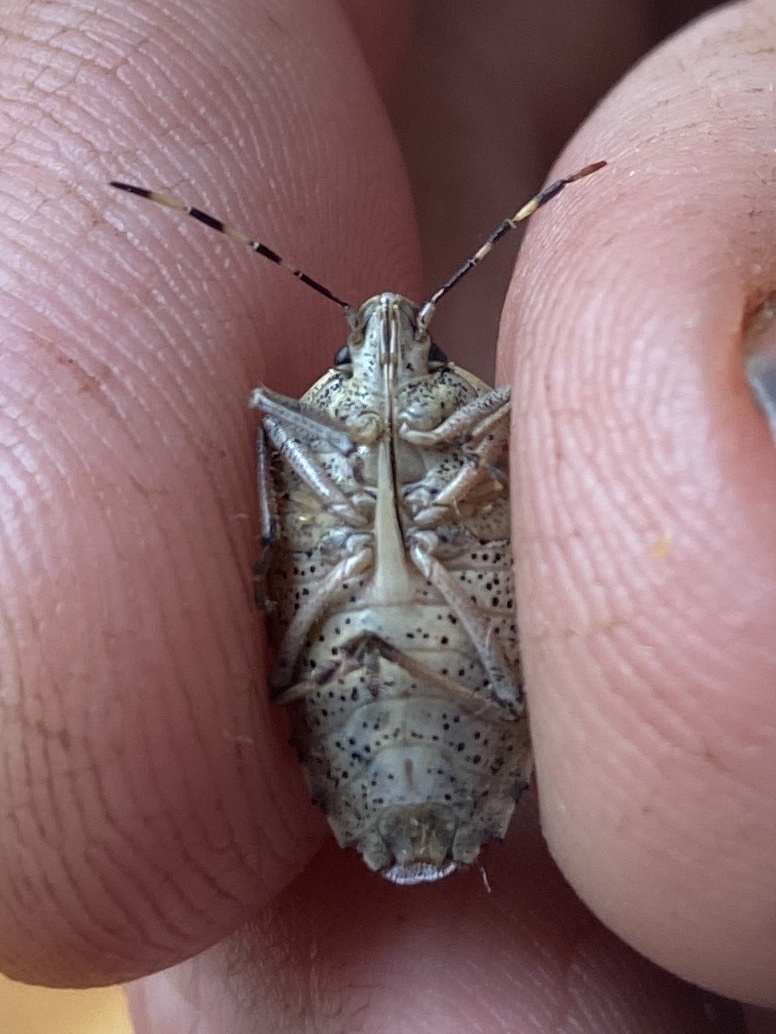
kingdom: Animalia
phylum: Arthropoda
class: Insecta
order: Hemiptera
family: Pentatomidae
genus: Rhaphigaster
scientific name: Rhaphigaster nebulosa
